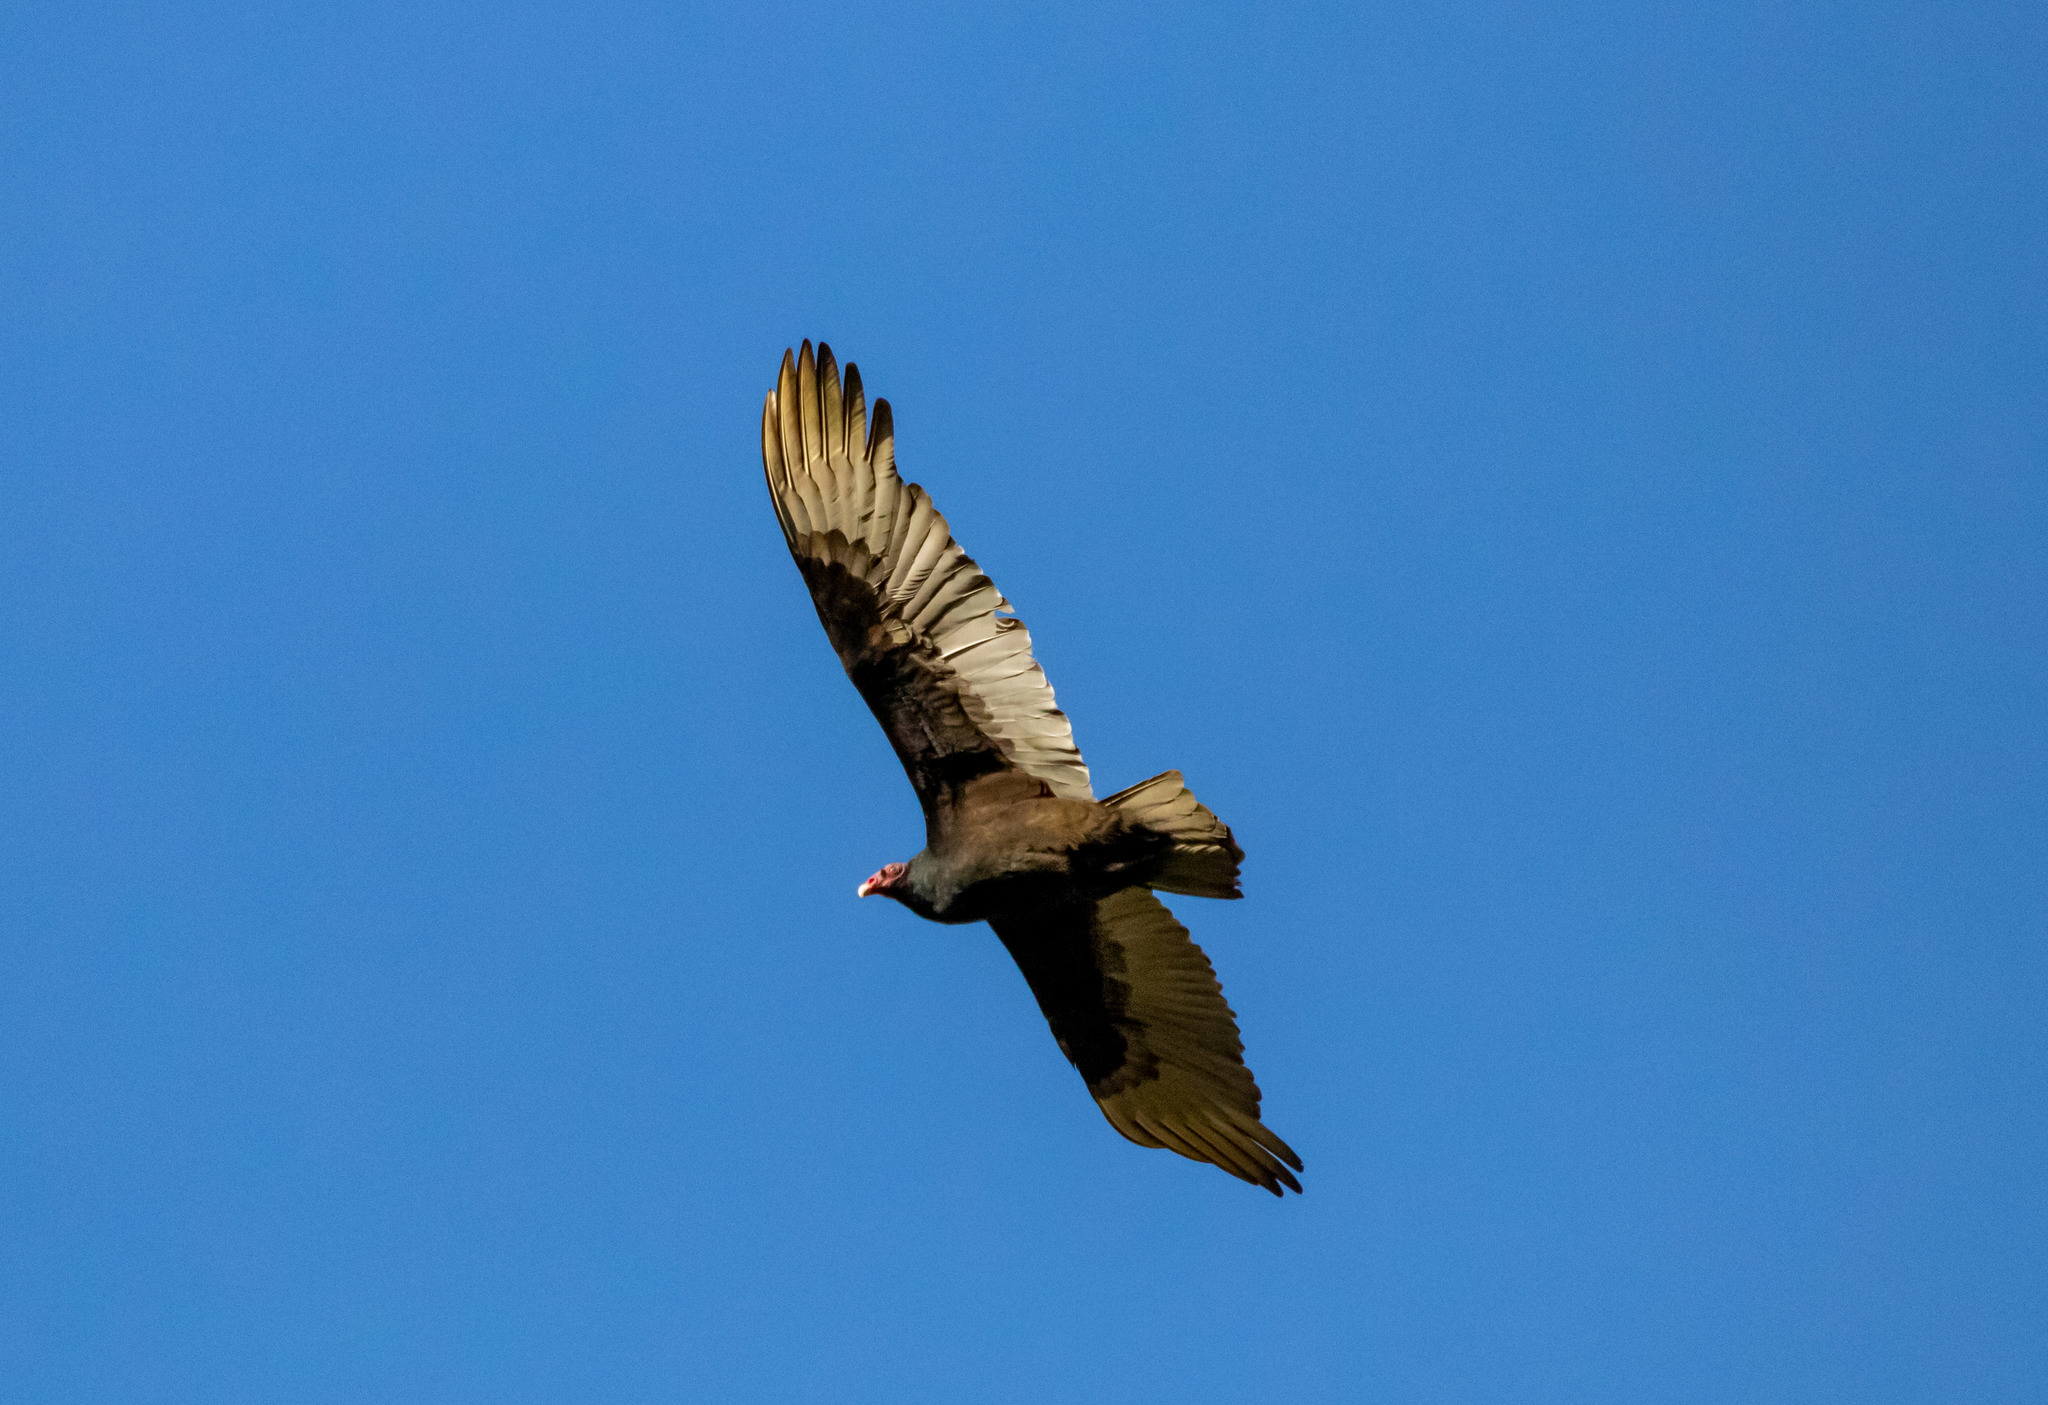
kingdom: Animalia
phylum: Chordata
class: Aves
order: Accipitriformes
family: Cathartidae
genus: Cathartes
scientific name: Cathartes aura
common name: Turkey vulture
